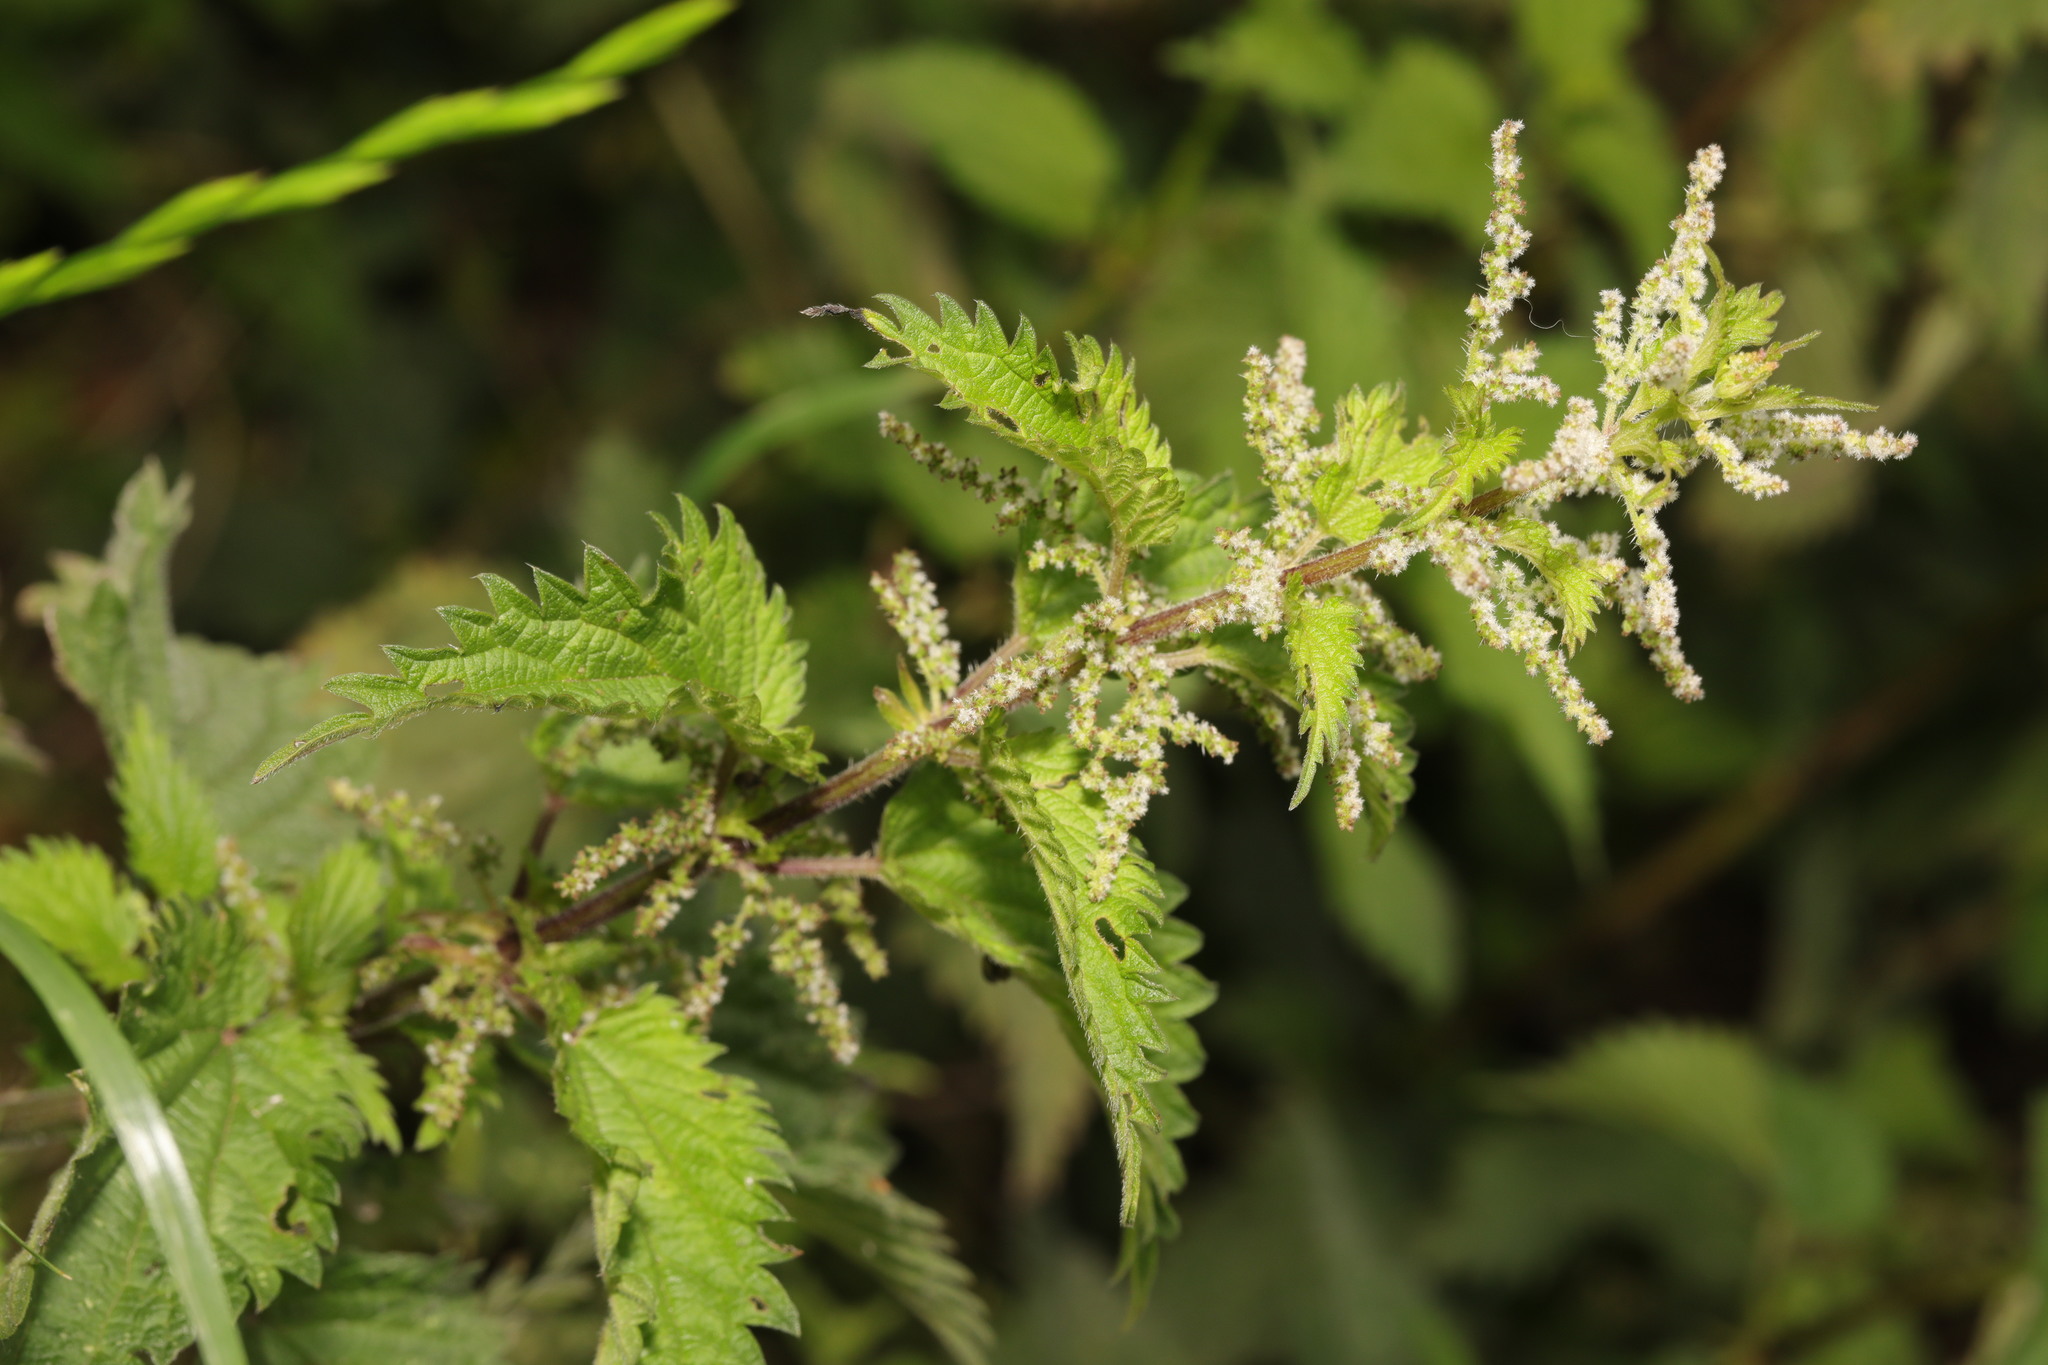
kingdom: Plantae
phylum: Tracheophyta
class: Magnoliopsida
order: Rosales
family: Urticaceae
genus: Urtica
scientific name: Urtica dioica
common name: Common nettle
